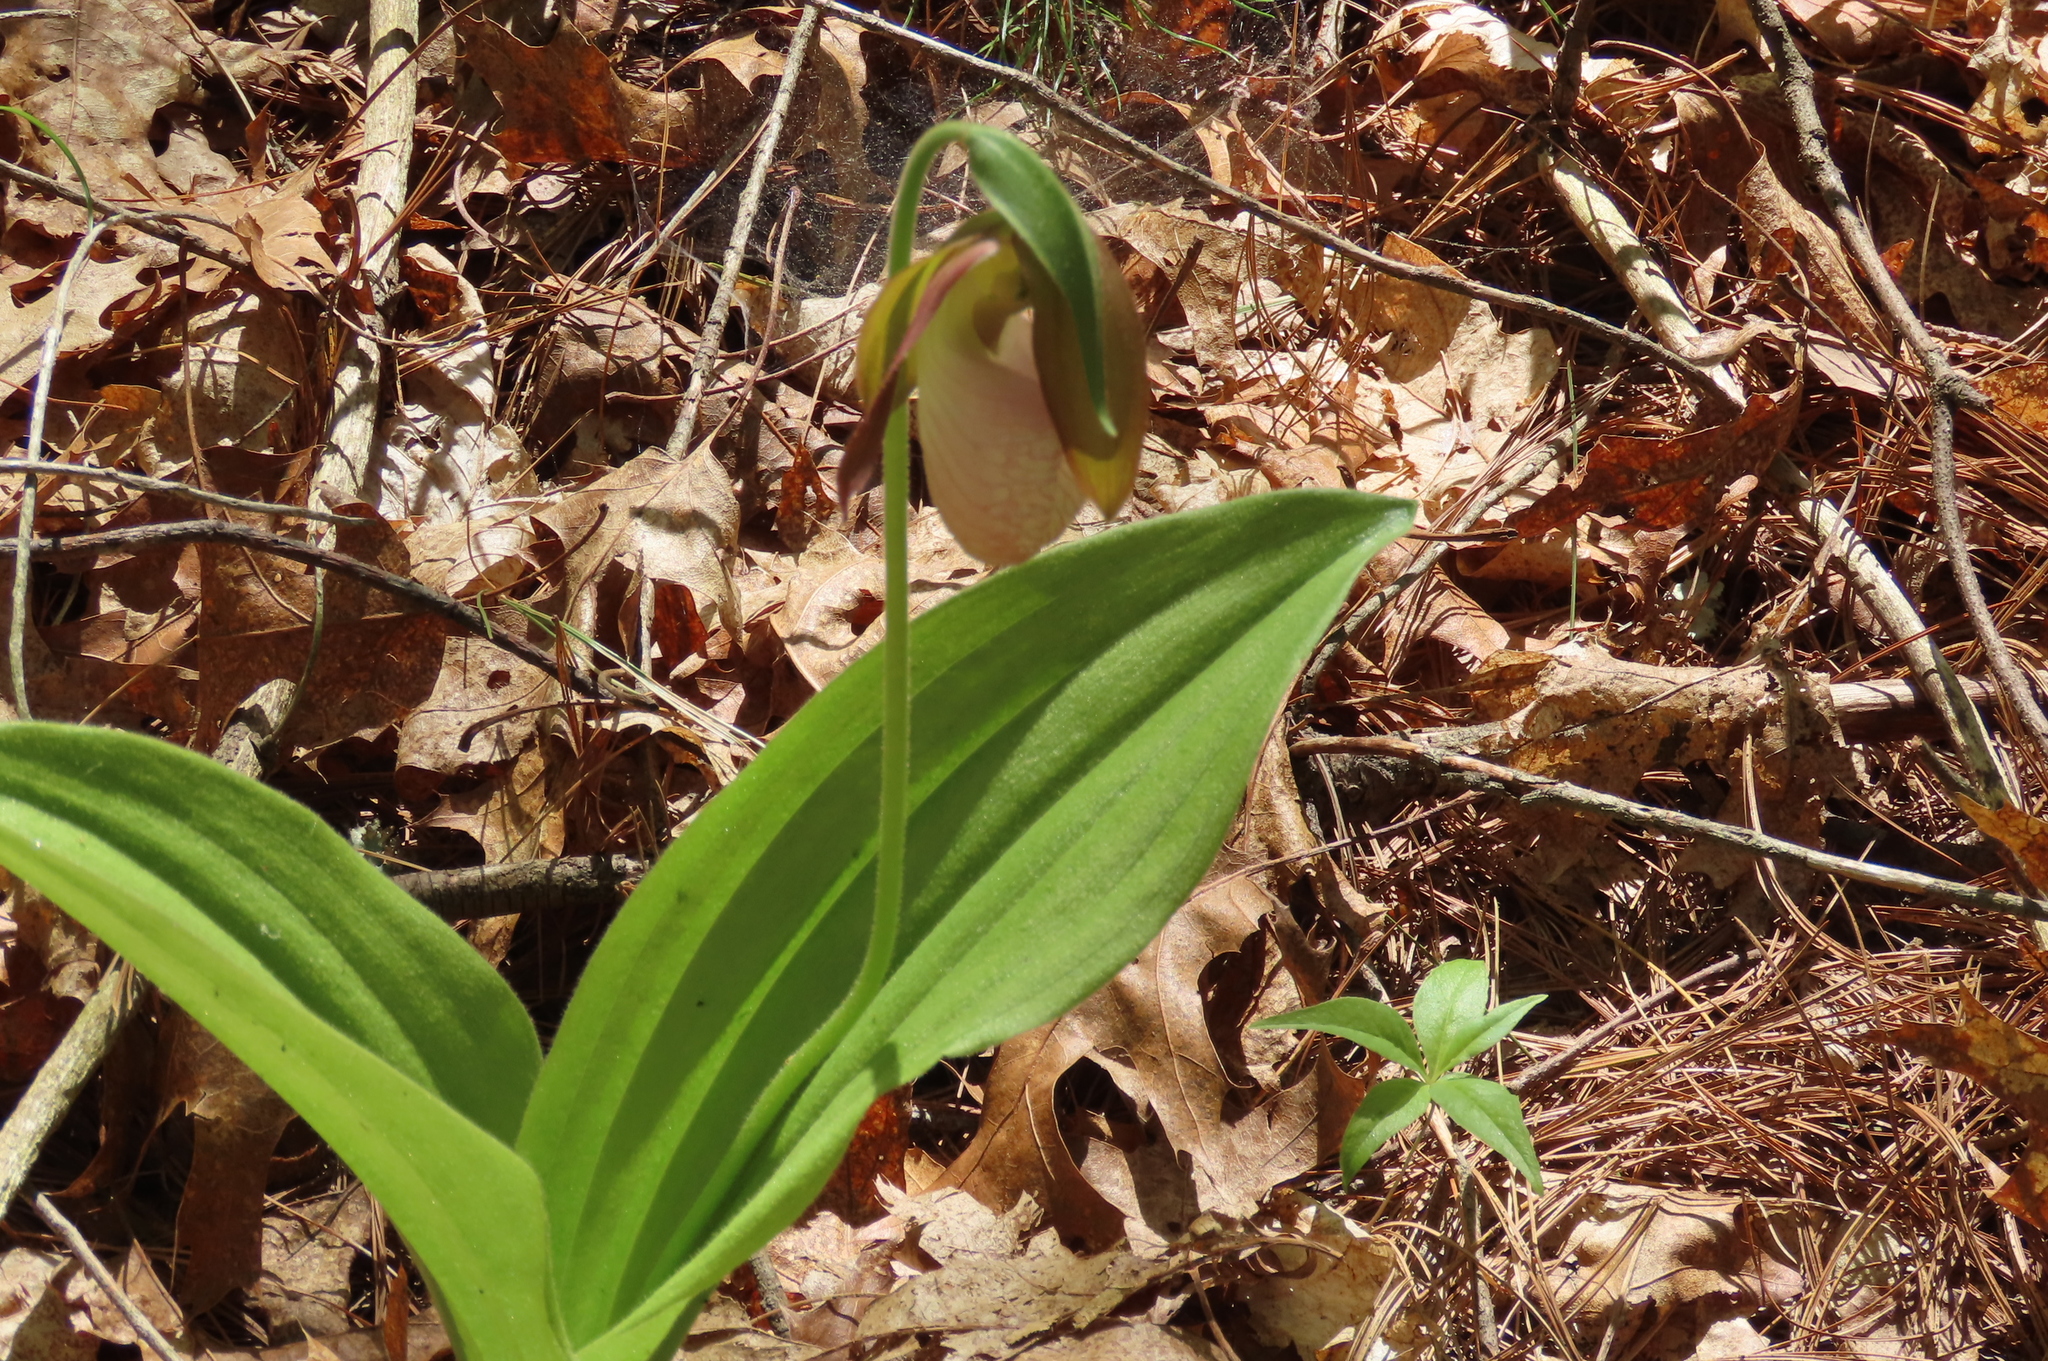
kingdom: Plantae
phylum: Tracheophyta
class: Liliopsida
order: Asparagales
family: Orchidaceae
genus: Cypripedium
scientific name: Cypripedium acaule
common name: Pink lady's-slipper
